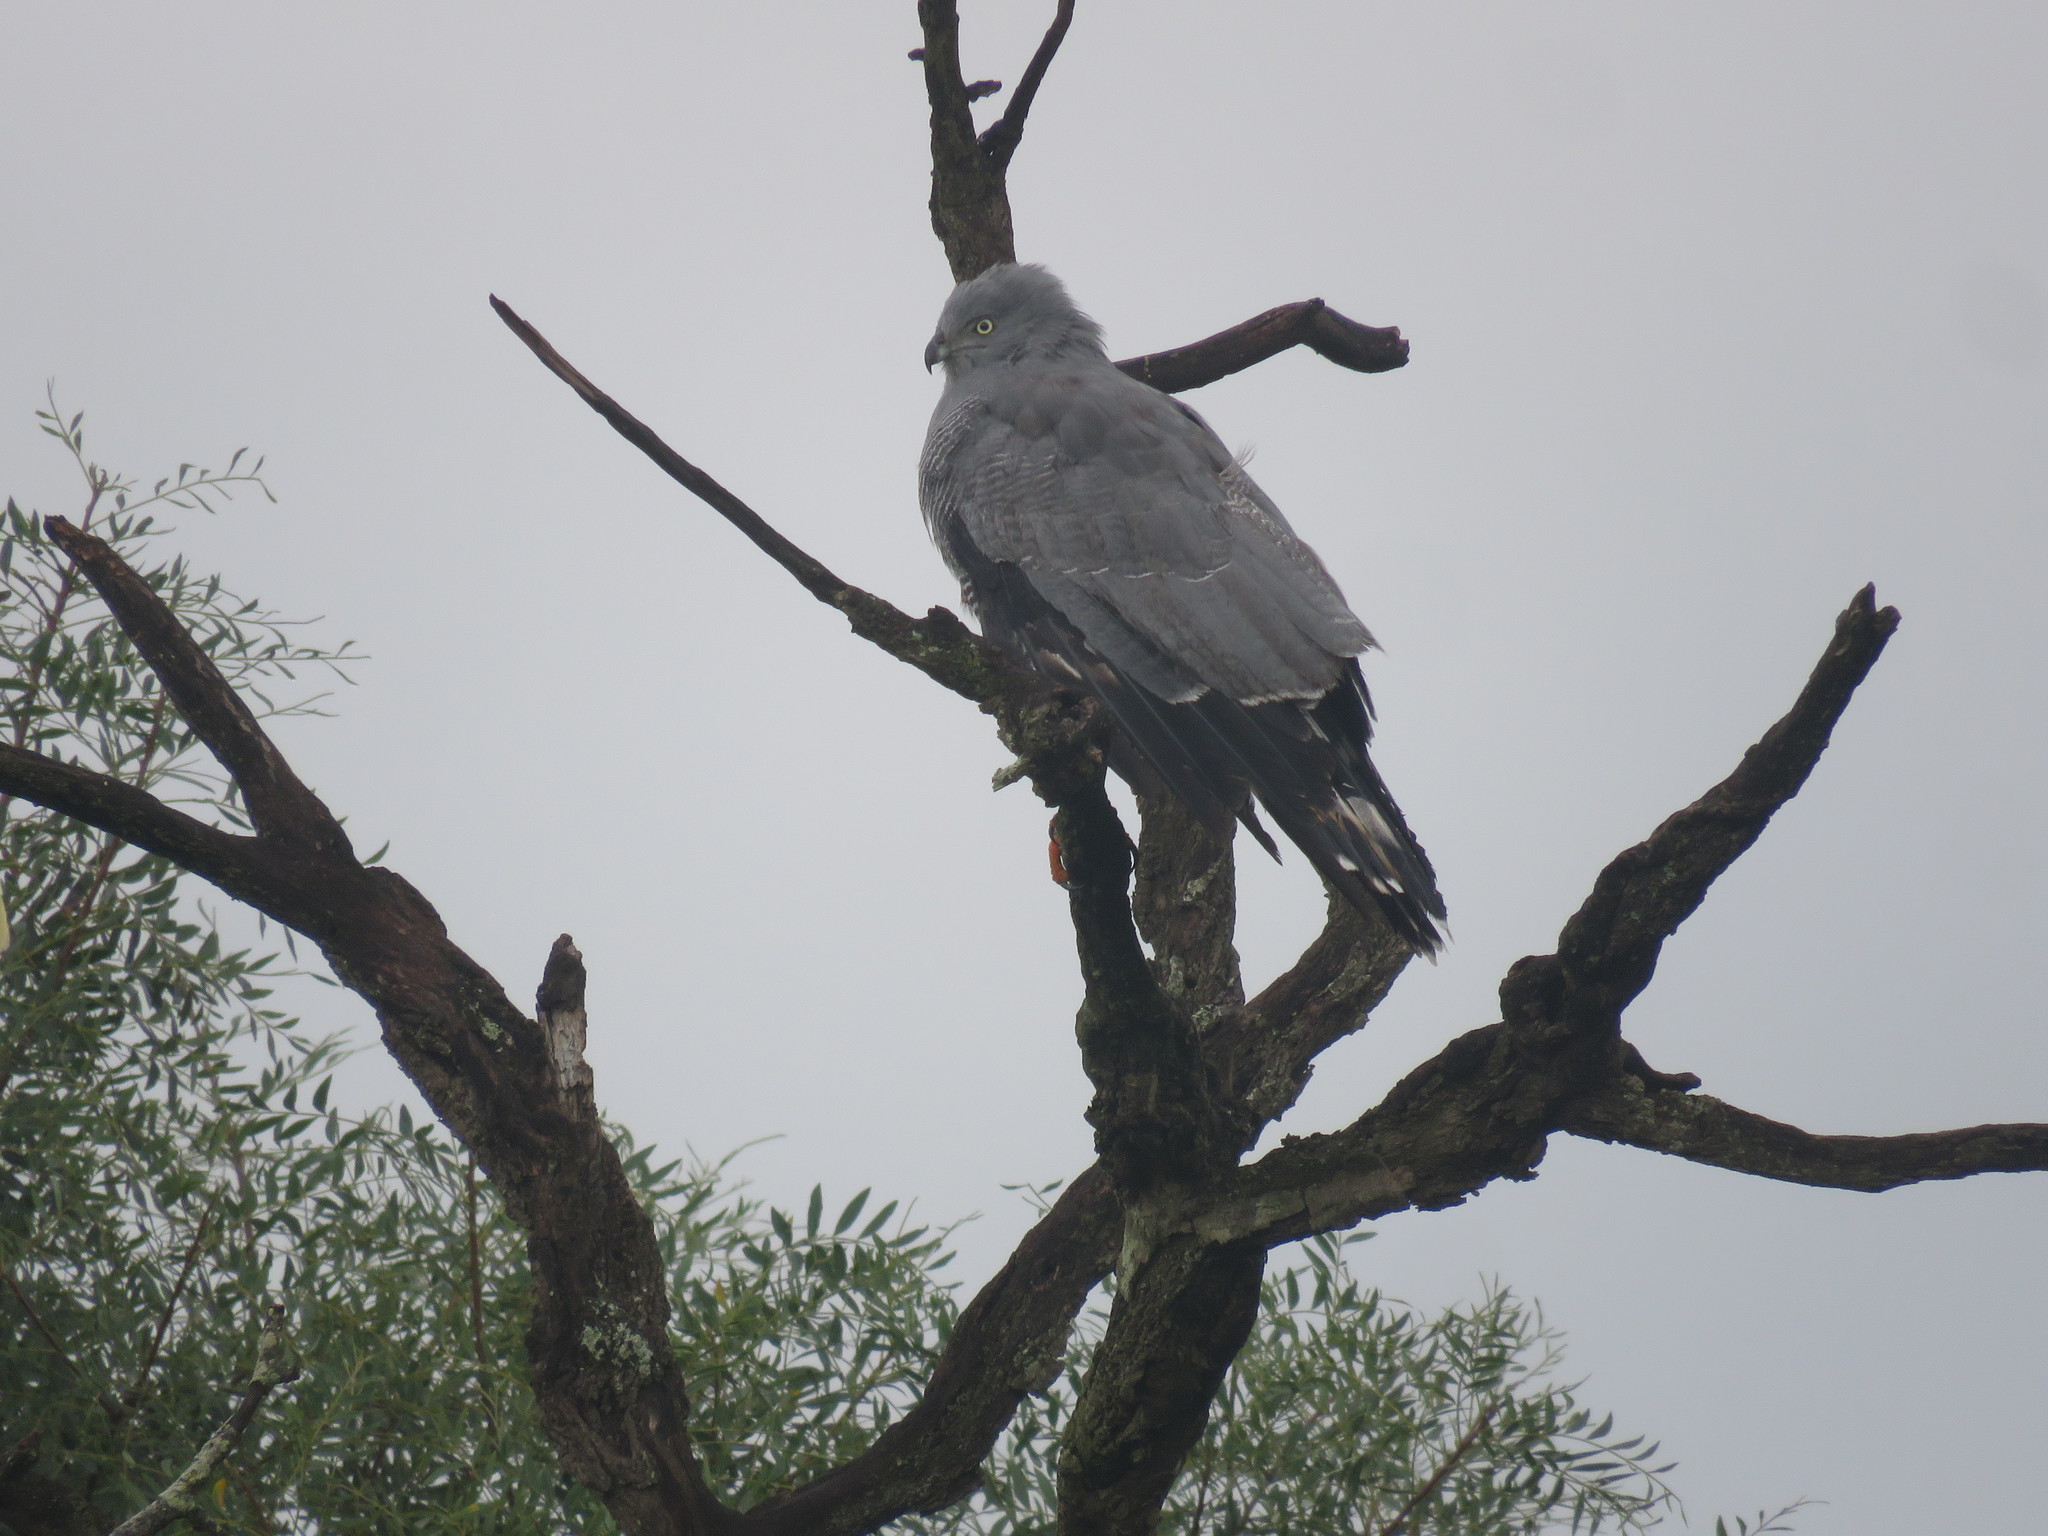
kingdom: Animalia
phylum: Chordata
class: Aves
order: Accipitriformes
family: Accipitridae
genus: Geranospiza
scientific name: Geranospiza caerulescens
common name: Crane hawk
